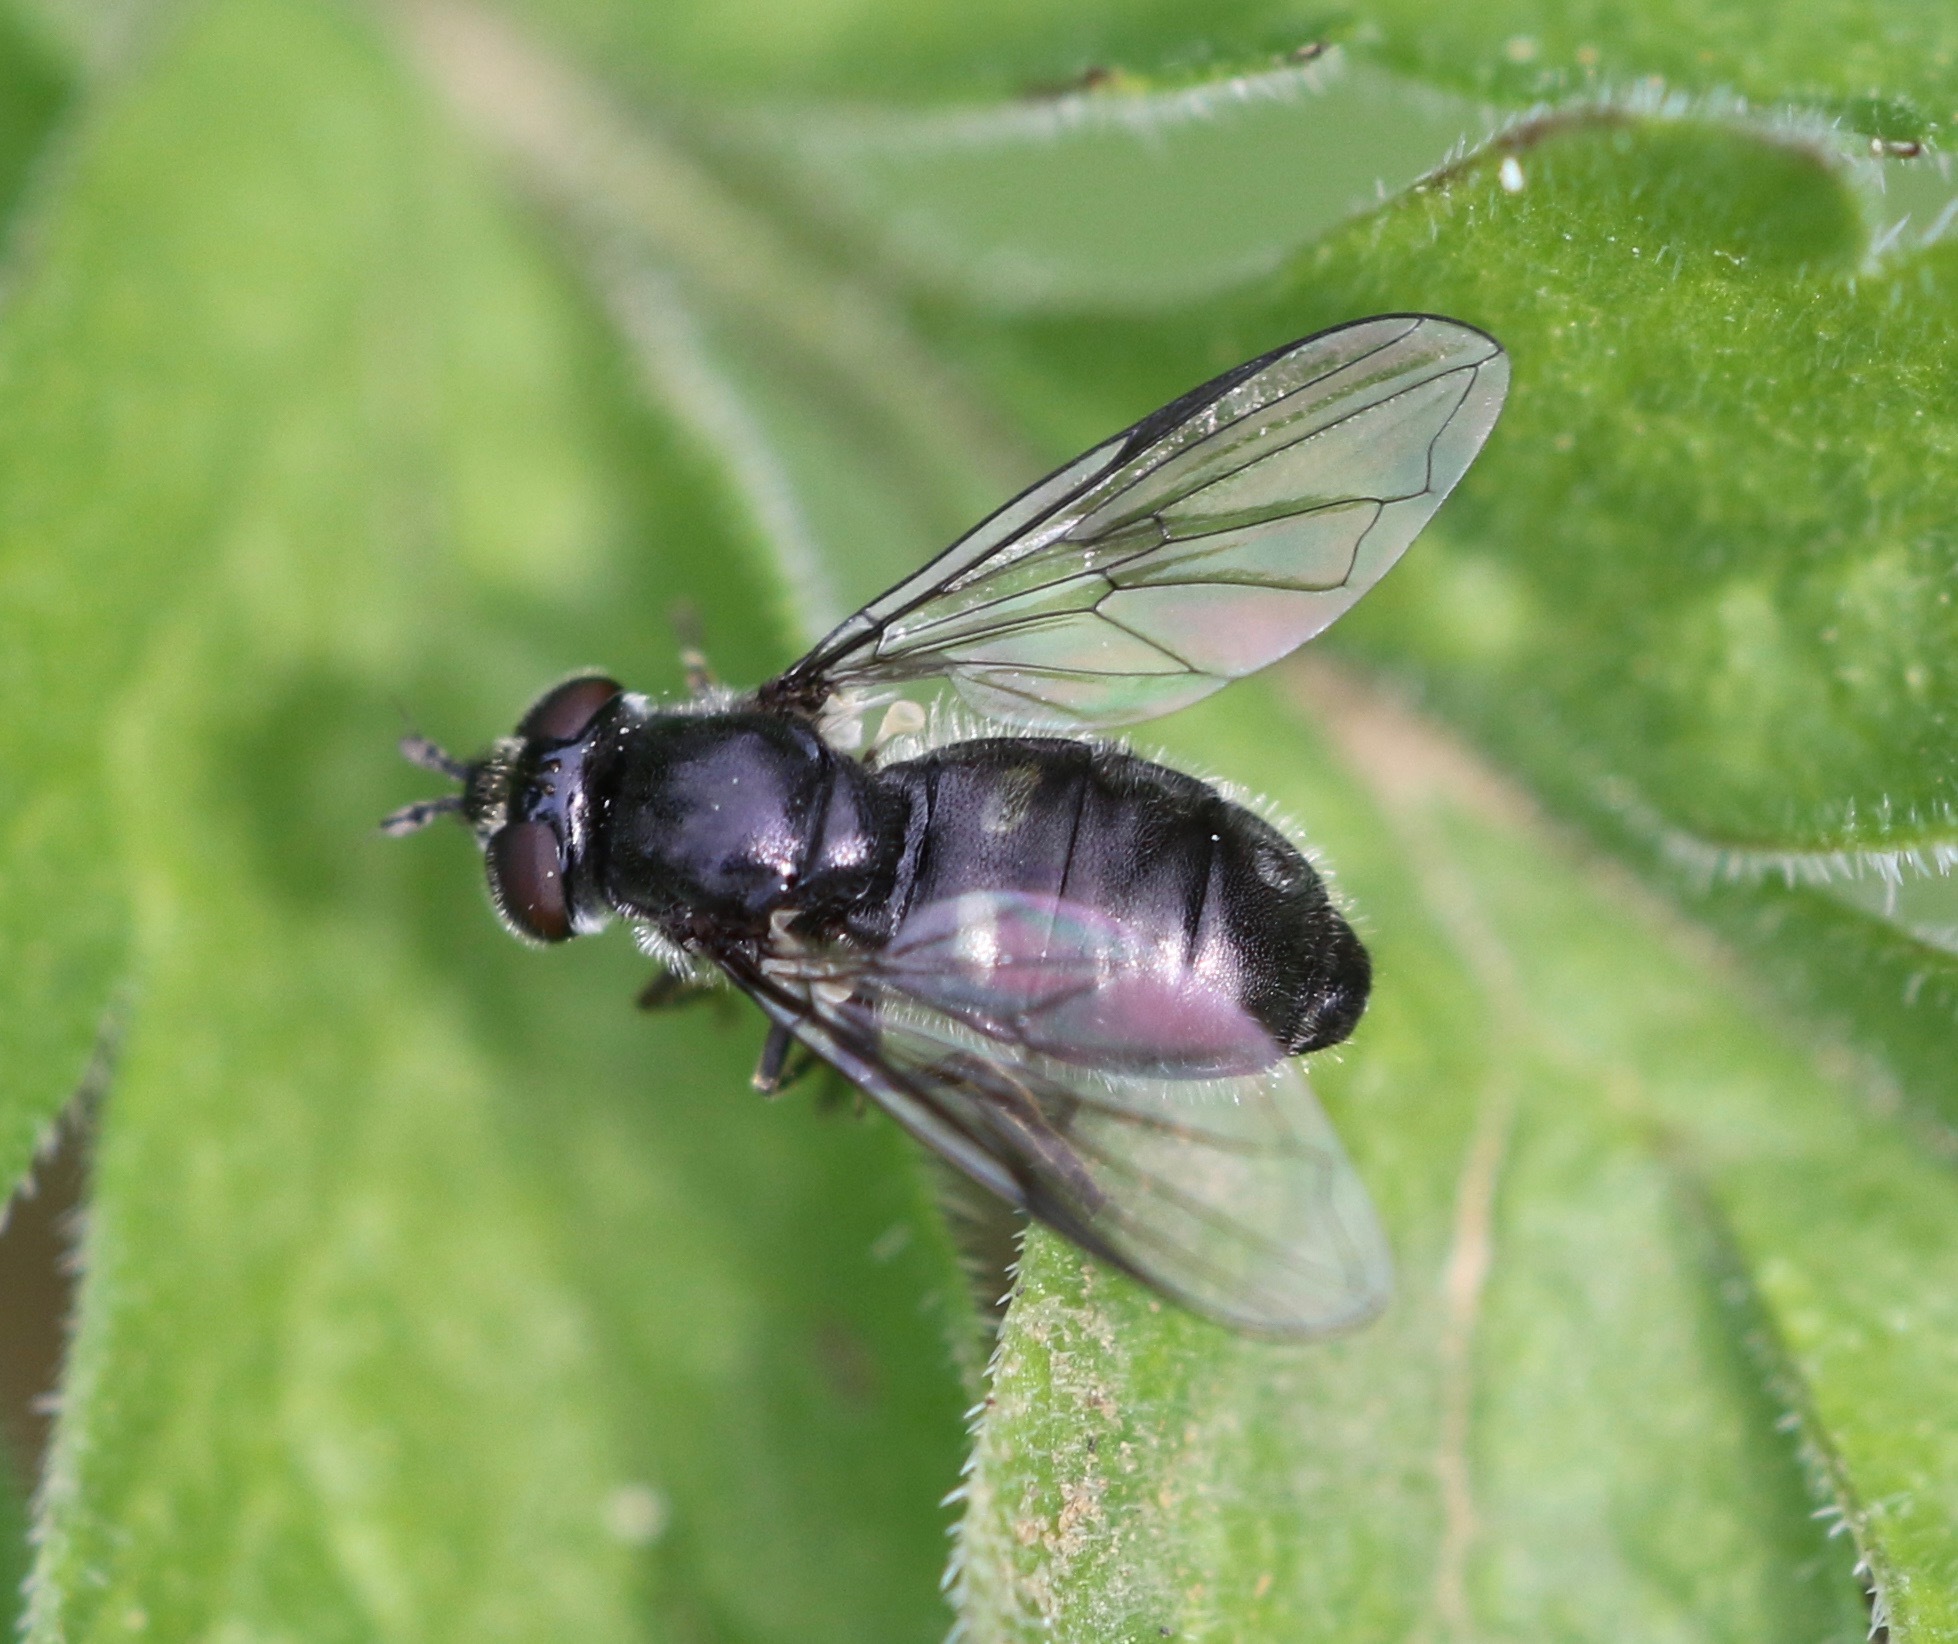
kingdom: Animalia
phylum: Arthropoda
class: Insecta
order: Diptera
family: Syrphidae
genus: Pipiza
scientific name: Pipiza
